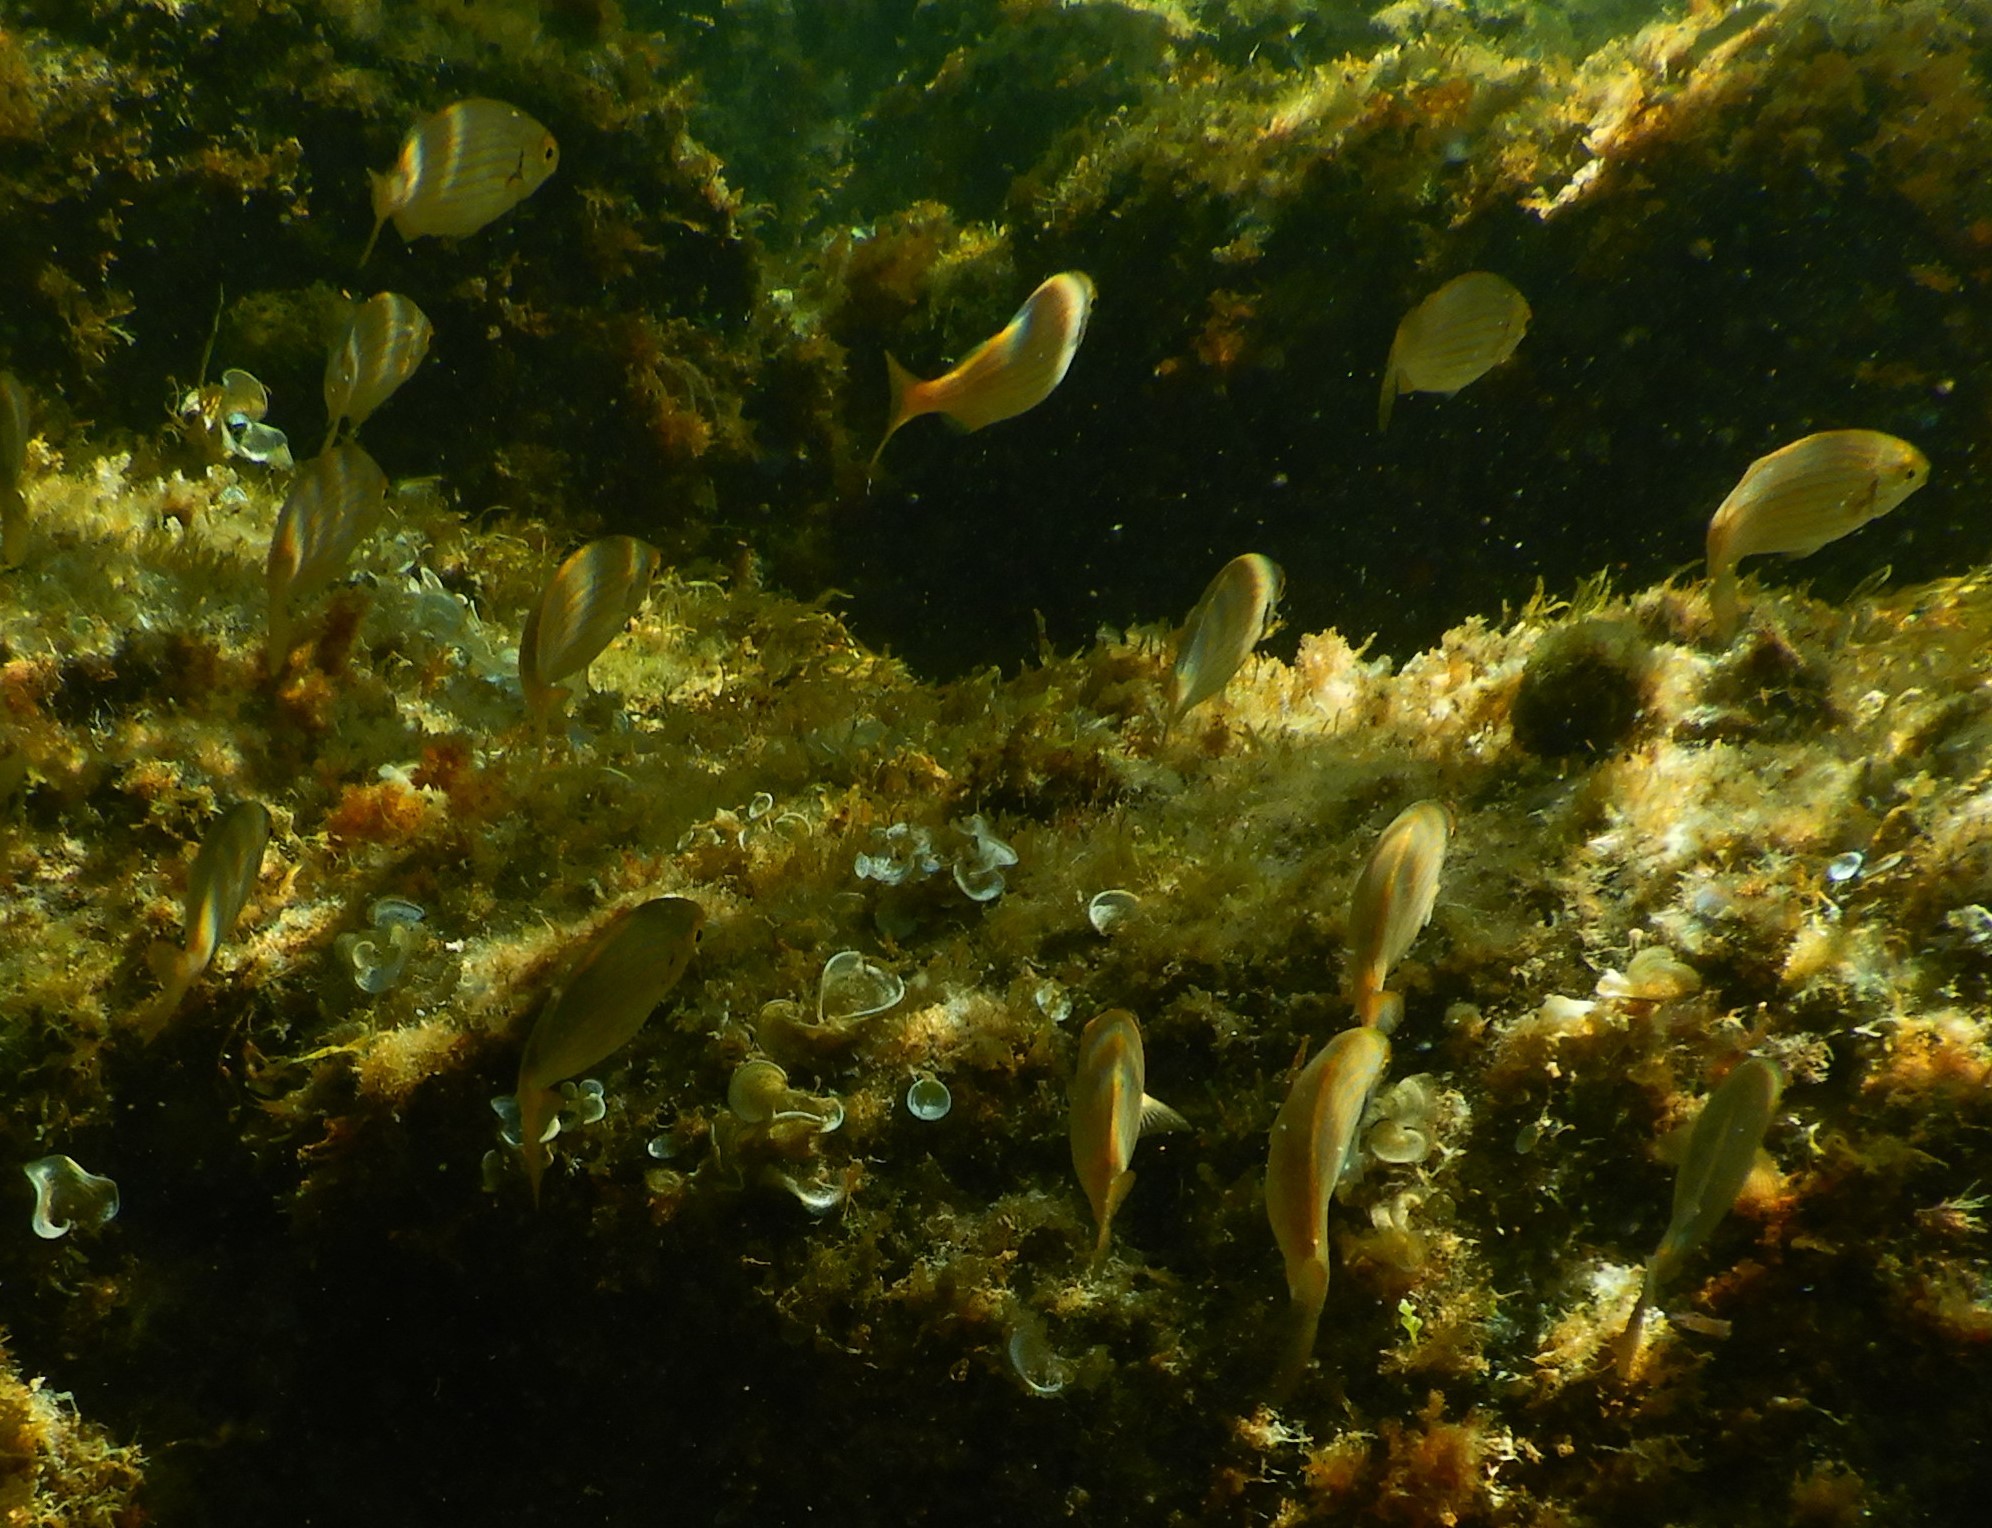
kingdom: Animalia
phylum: Chordata
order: Perciformes
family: Sparidae
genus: Sarpa
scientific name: Sarpa salpa
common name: Salema
